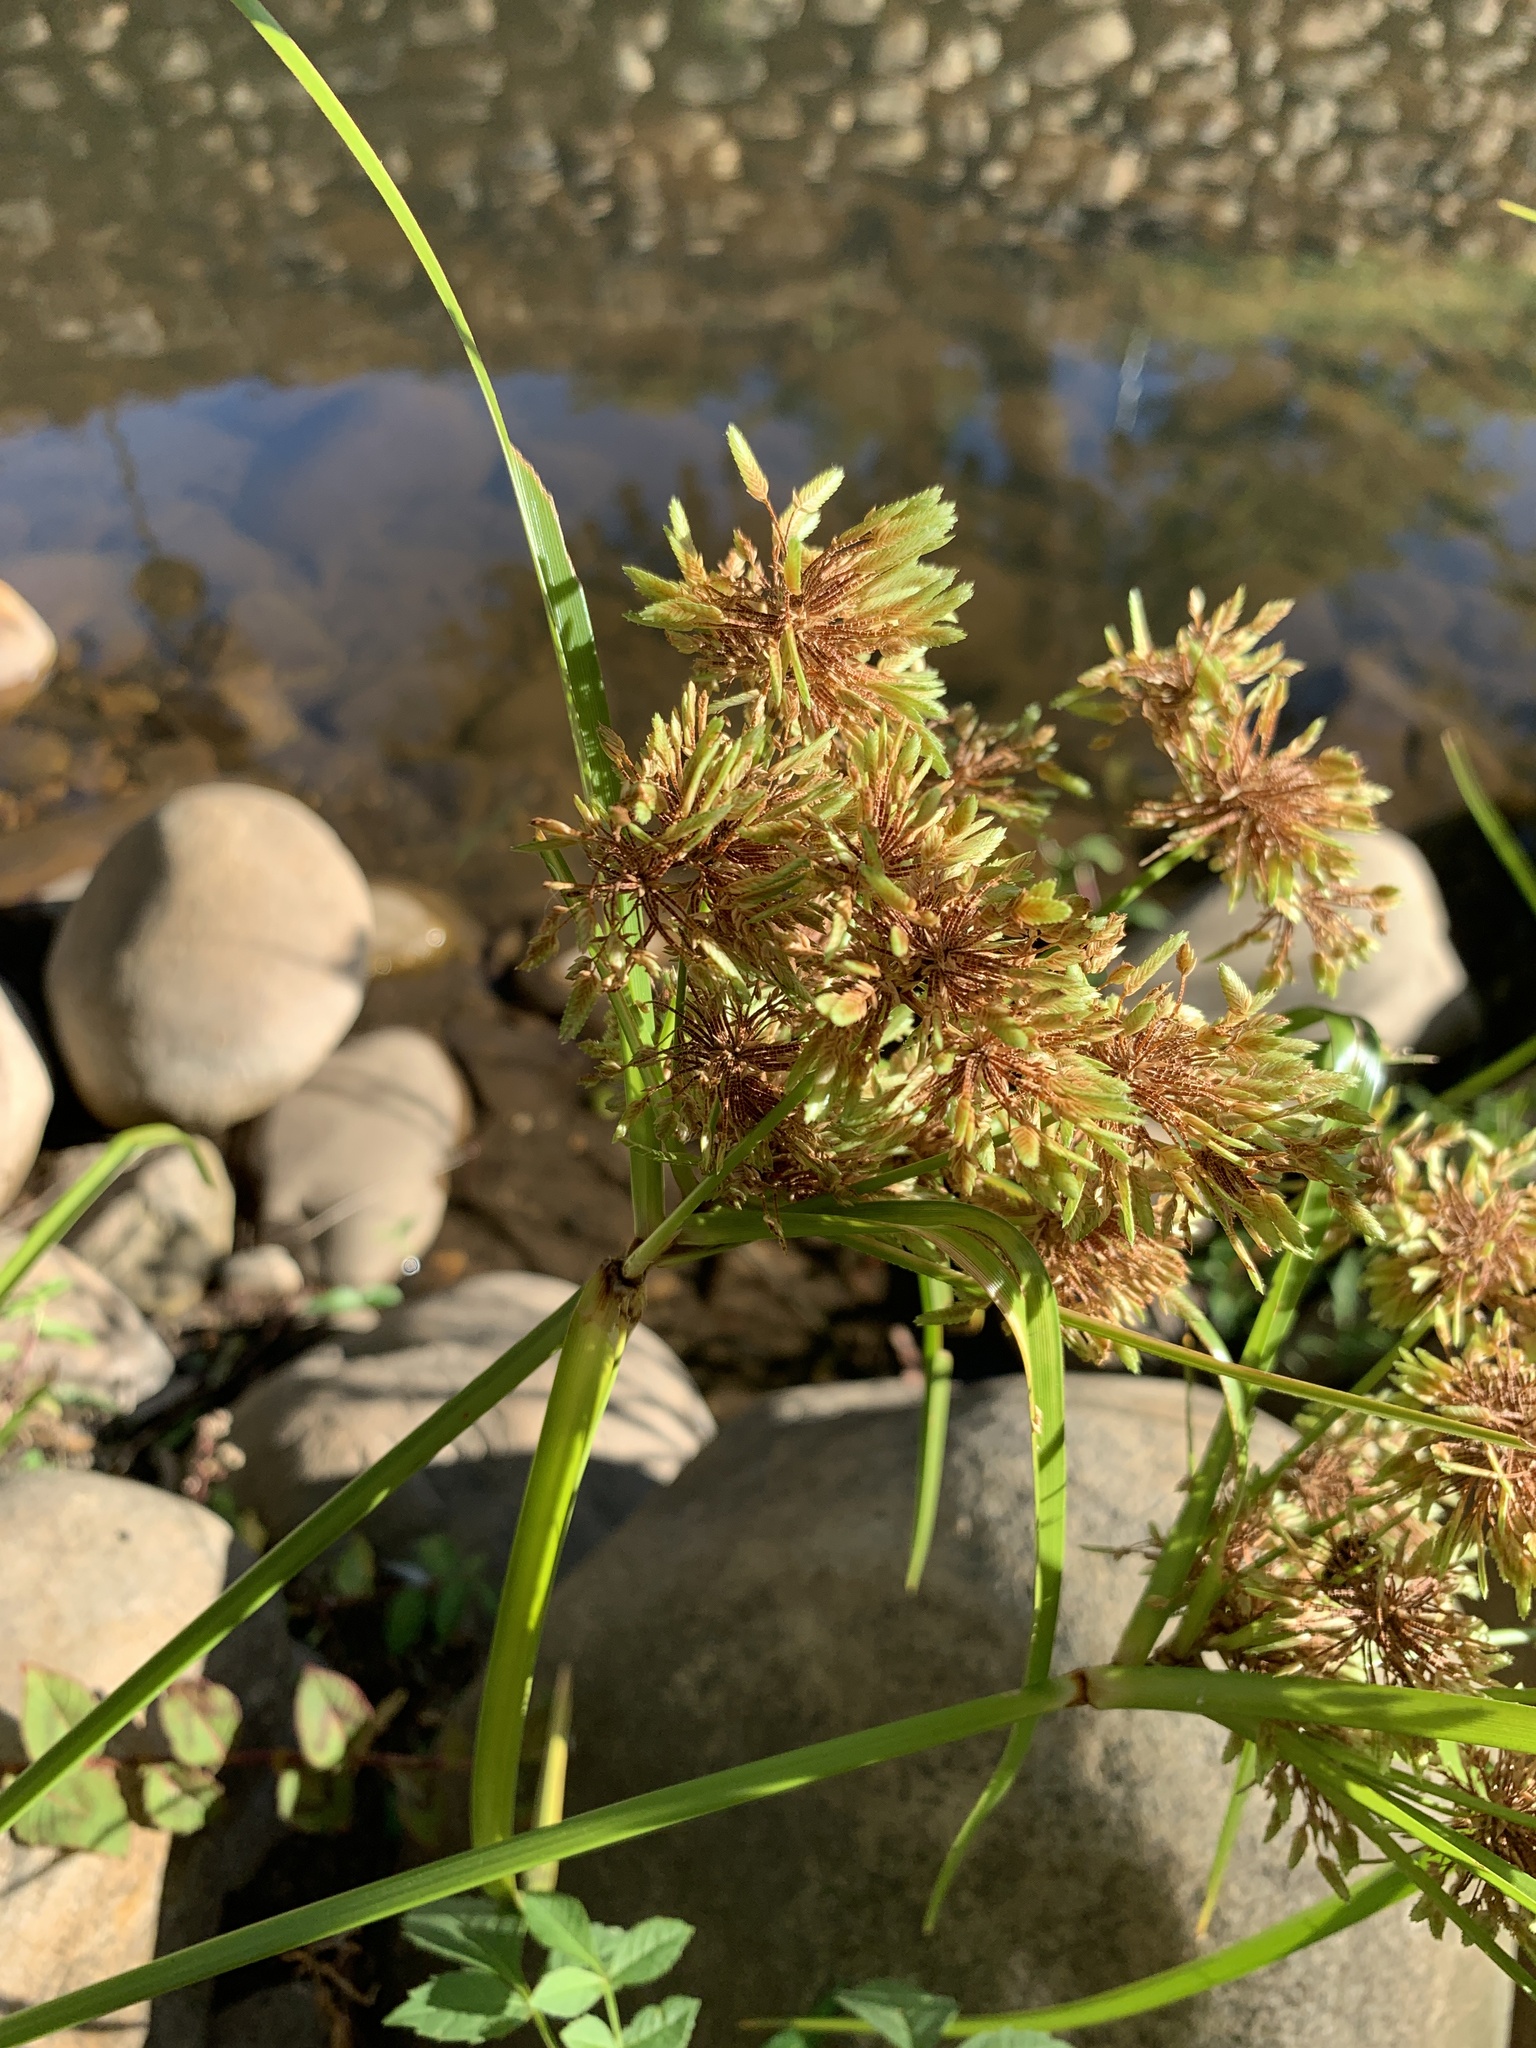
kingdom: Plantae
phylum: Tracheophyta
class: Liliopsida
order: Poales
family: Cyperaceae
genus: Cyperus
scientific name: Cyperus eragrostis
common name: Tall flatsedge
